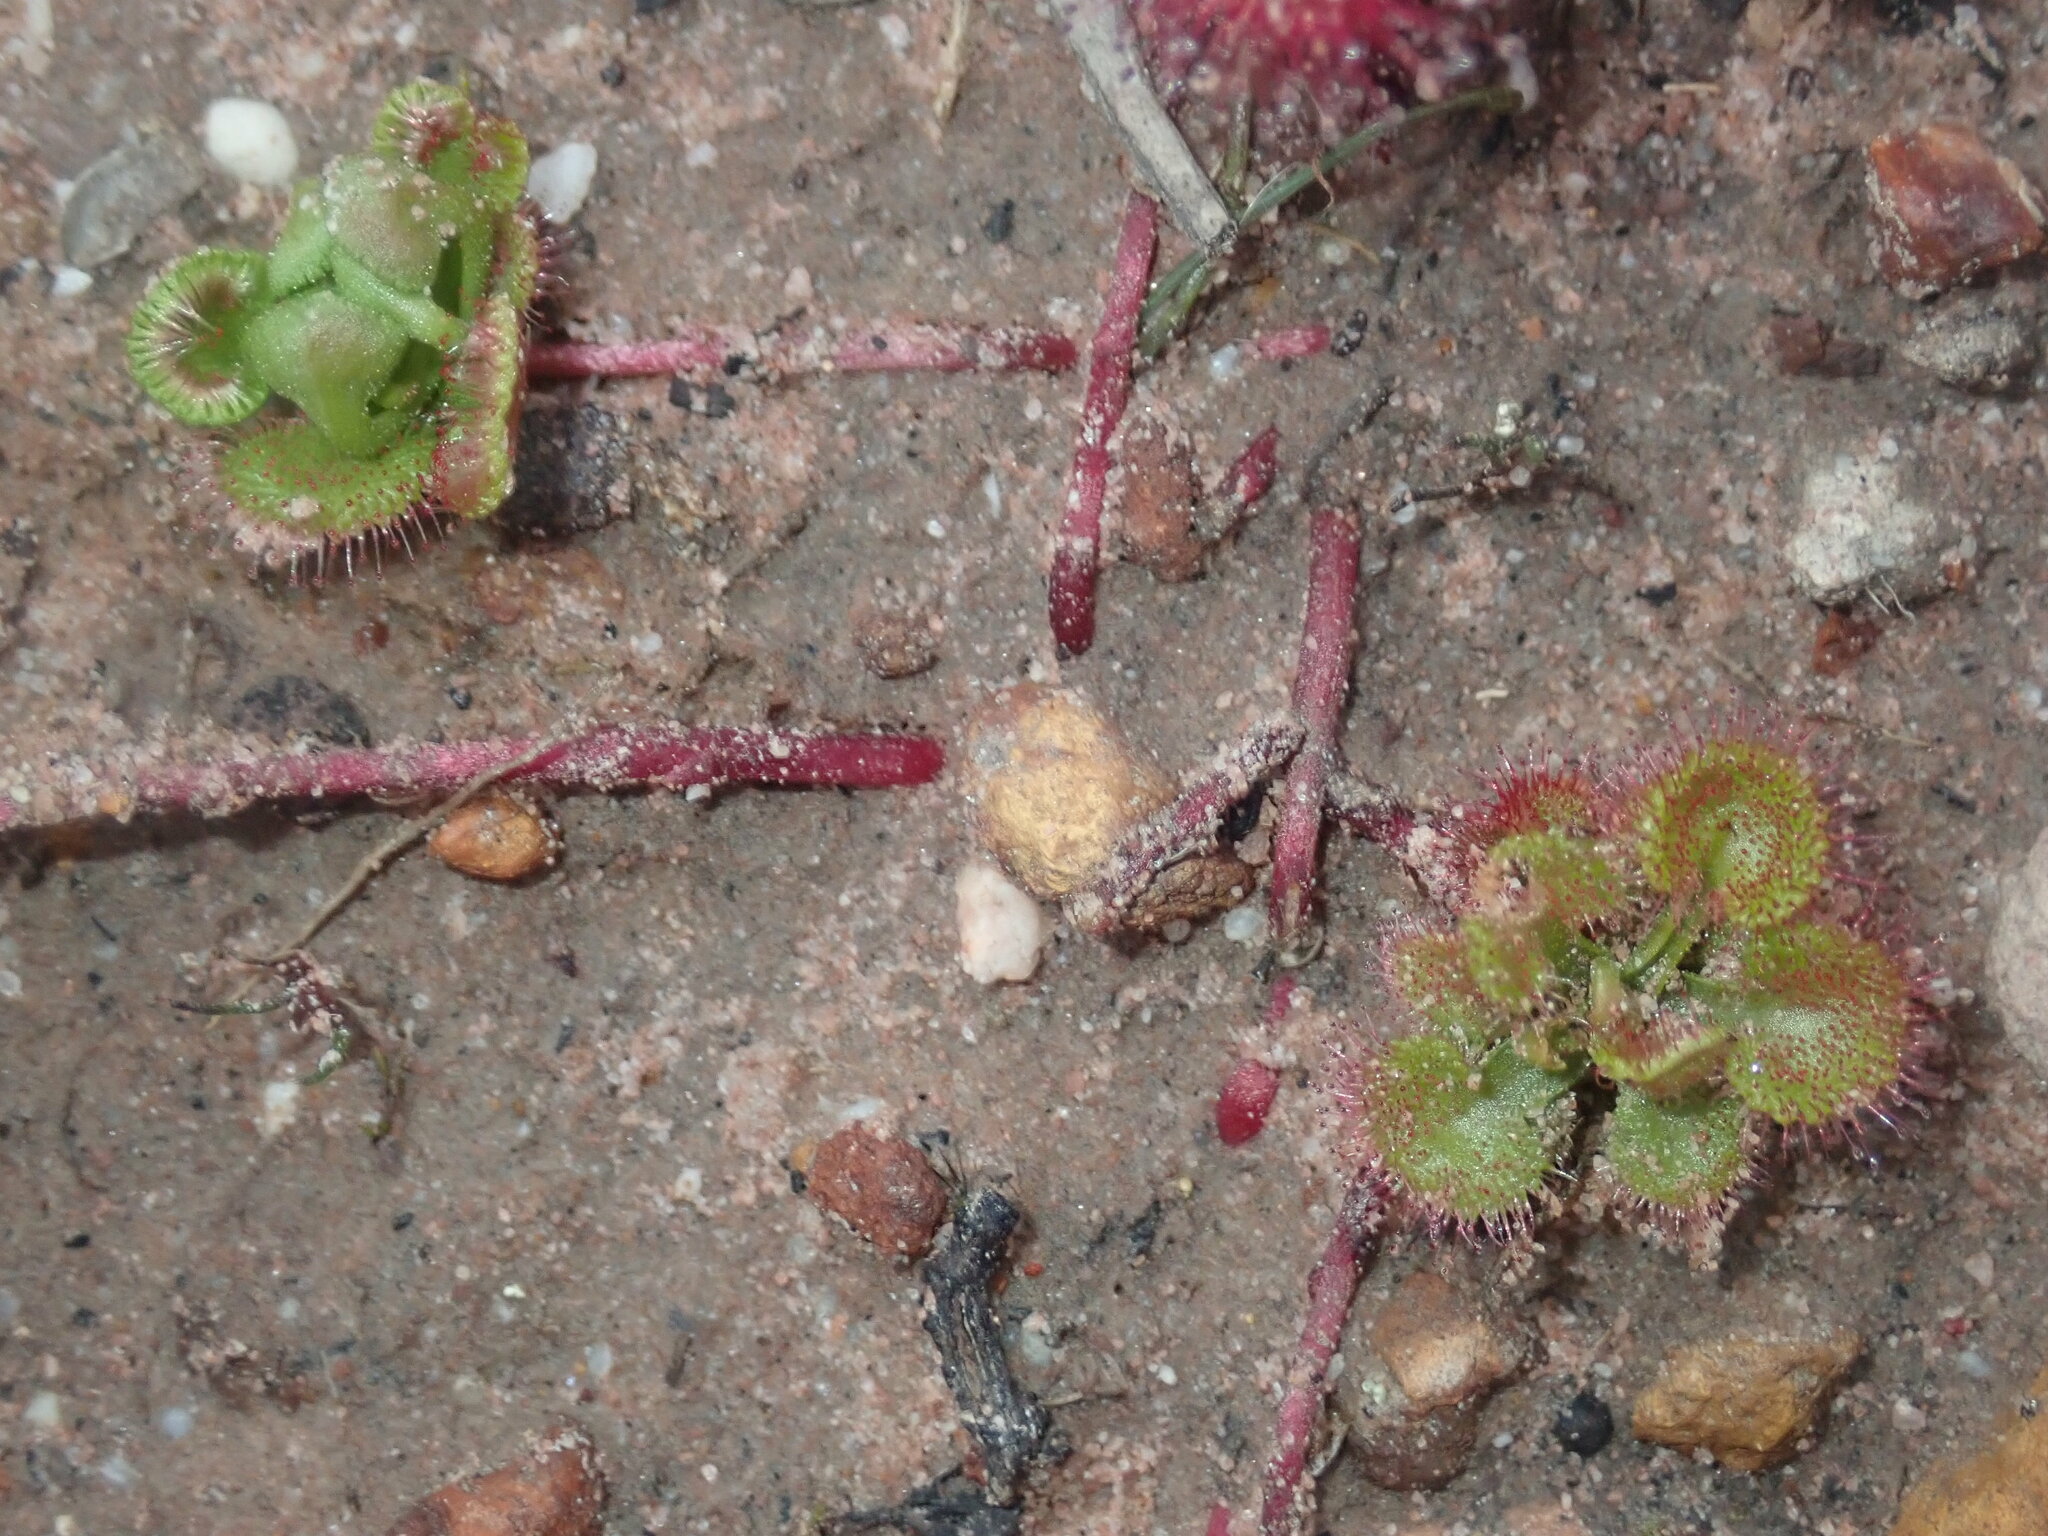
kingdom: Plantae
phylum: Tracheophyta
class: Magnoliopsida
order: Caryophyllales
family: Droseraceae
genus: Drosera
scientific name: Drosera stolonifera
